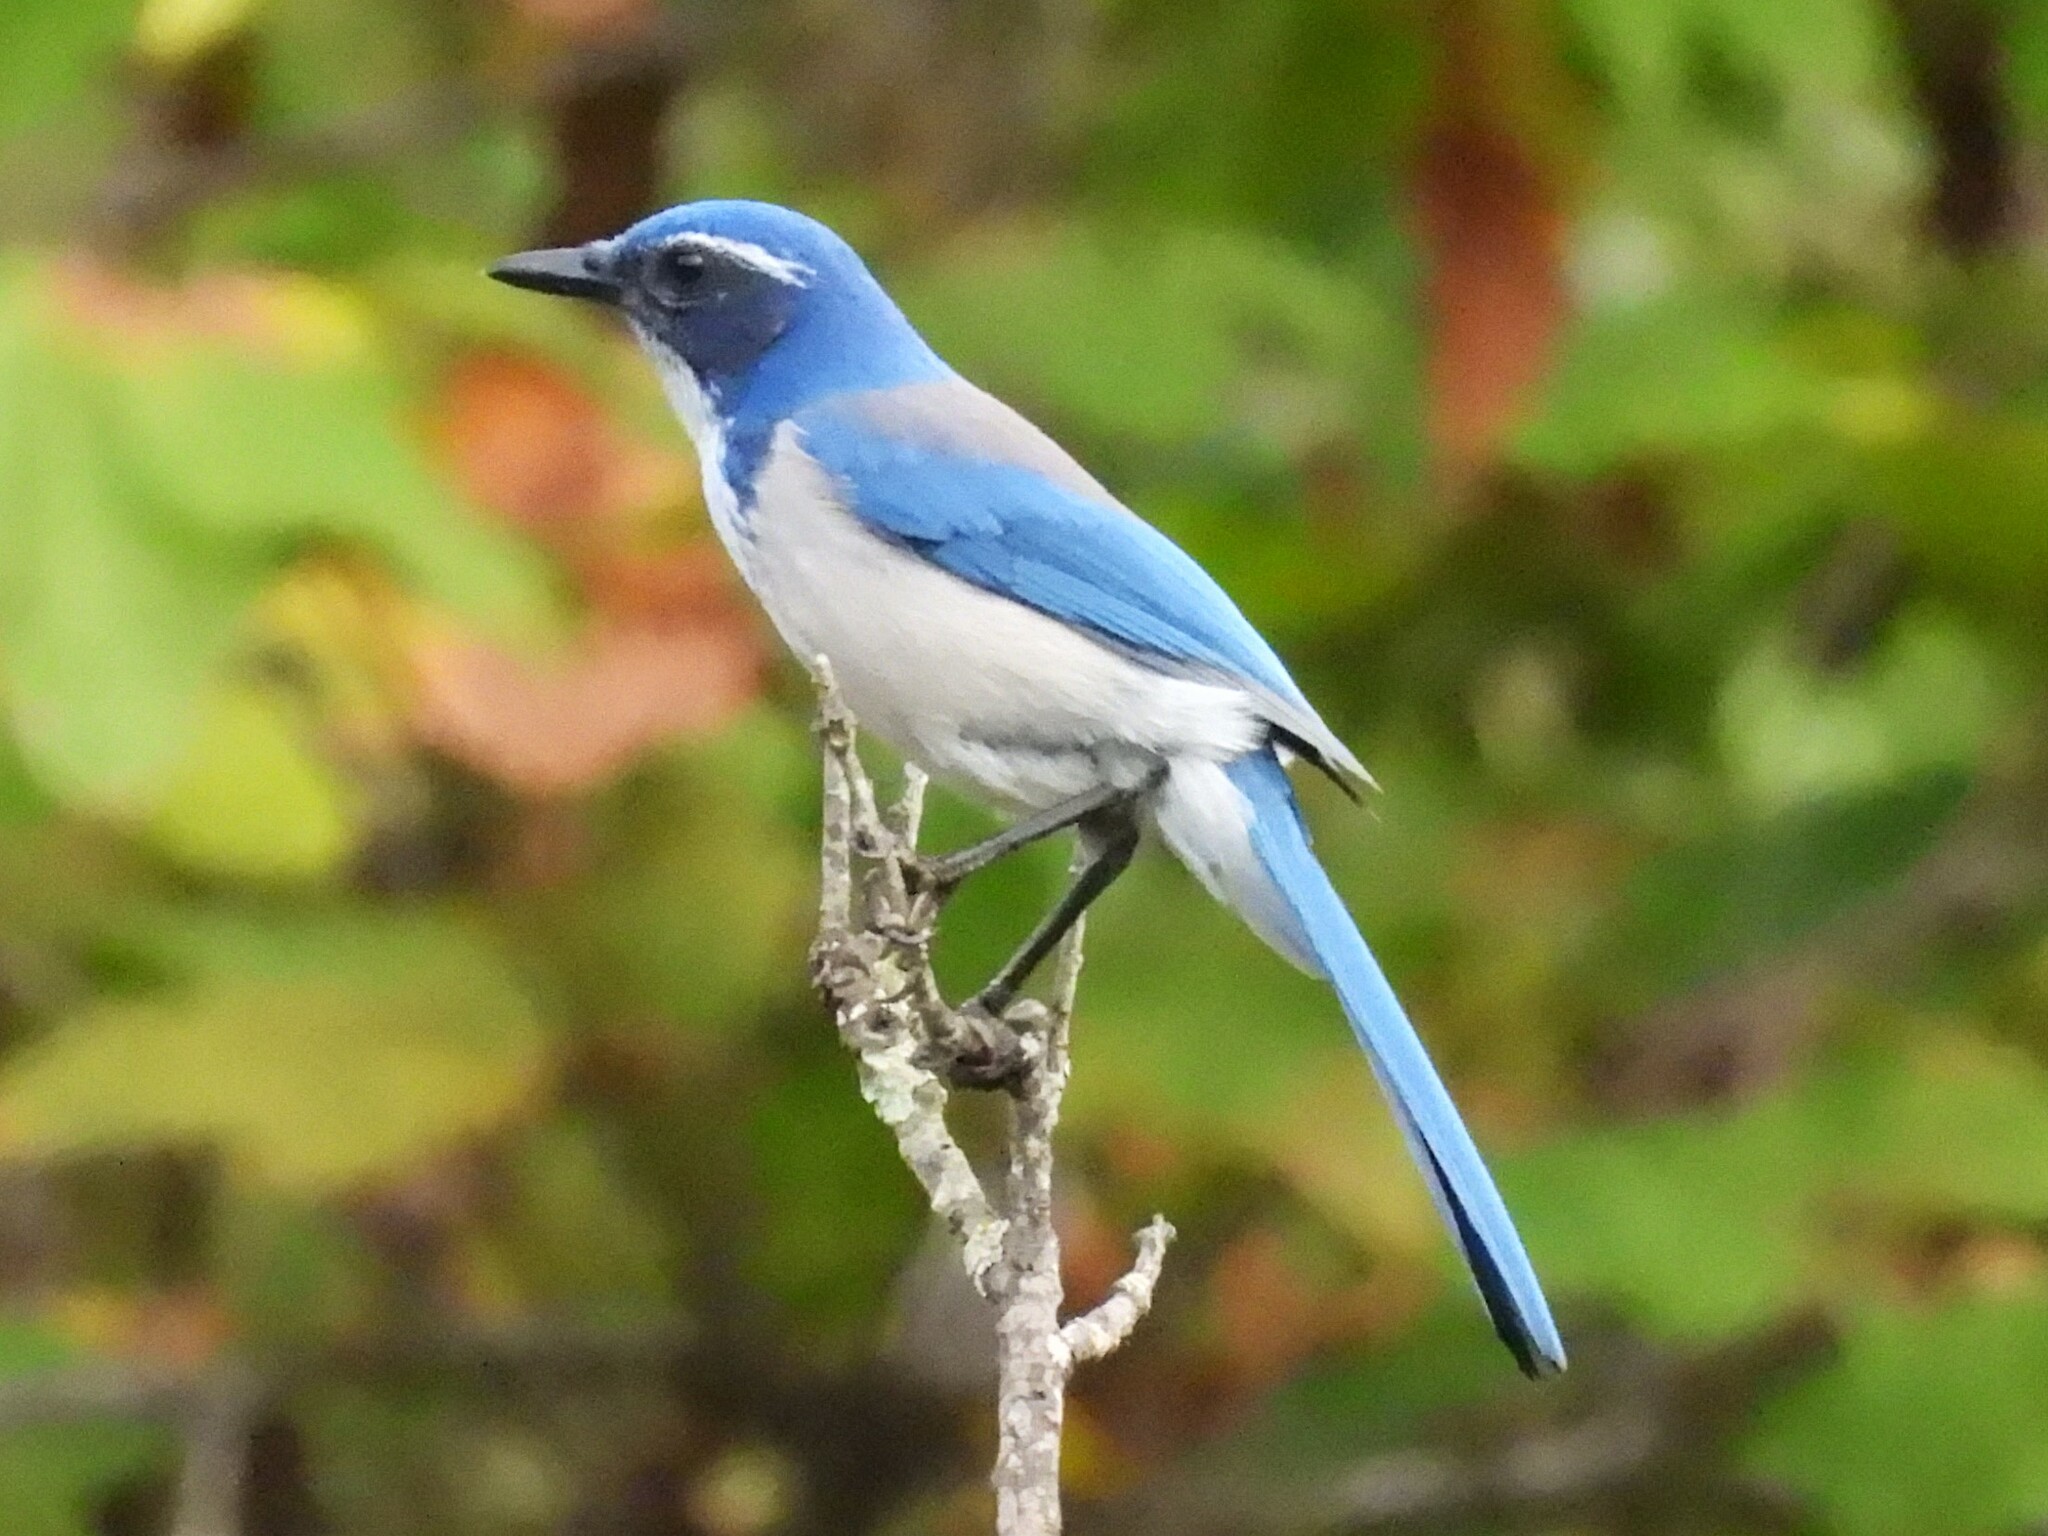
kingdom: Animalia
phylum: Chordata
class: Aves
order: Passeriformes
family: Corvidae
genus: Aphelocoma
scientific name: Aphelocoma californica
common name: California scrub-jay
